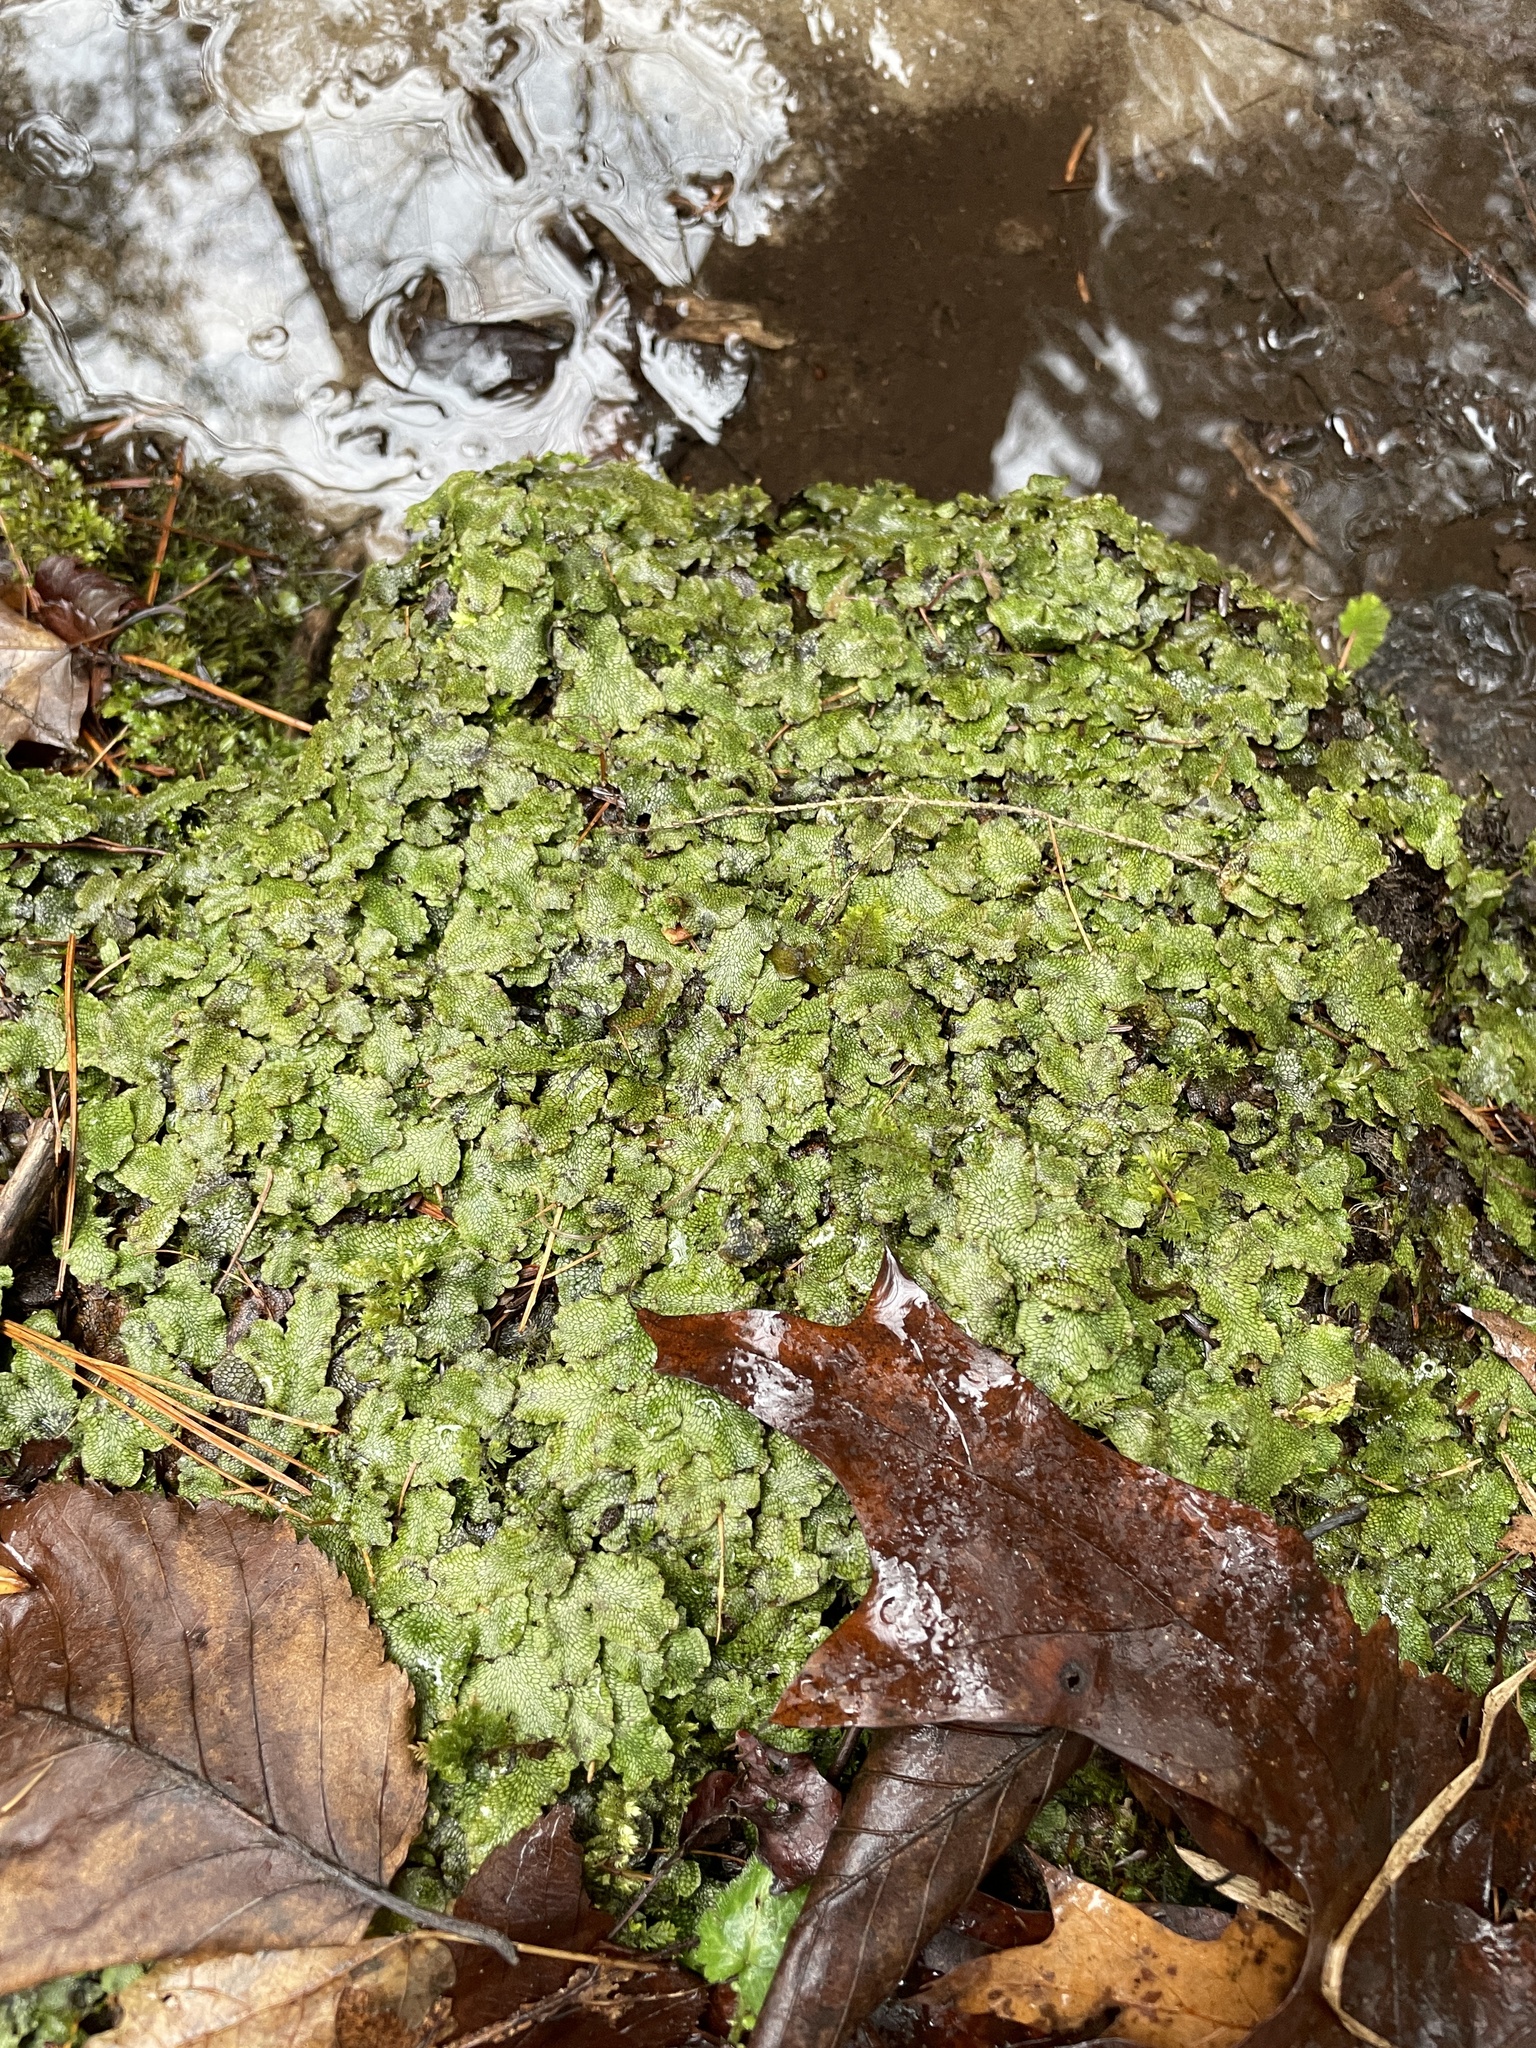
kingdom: Plantae
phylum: Marchantiophyta
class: Marchantiopsida
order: Marchantiales
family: Conocephalaceae
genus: Conocephalum
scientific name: Conocephalum salebrosum
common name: Cat-tongue liverwort
